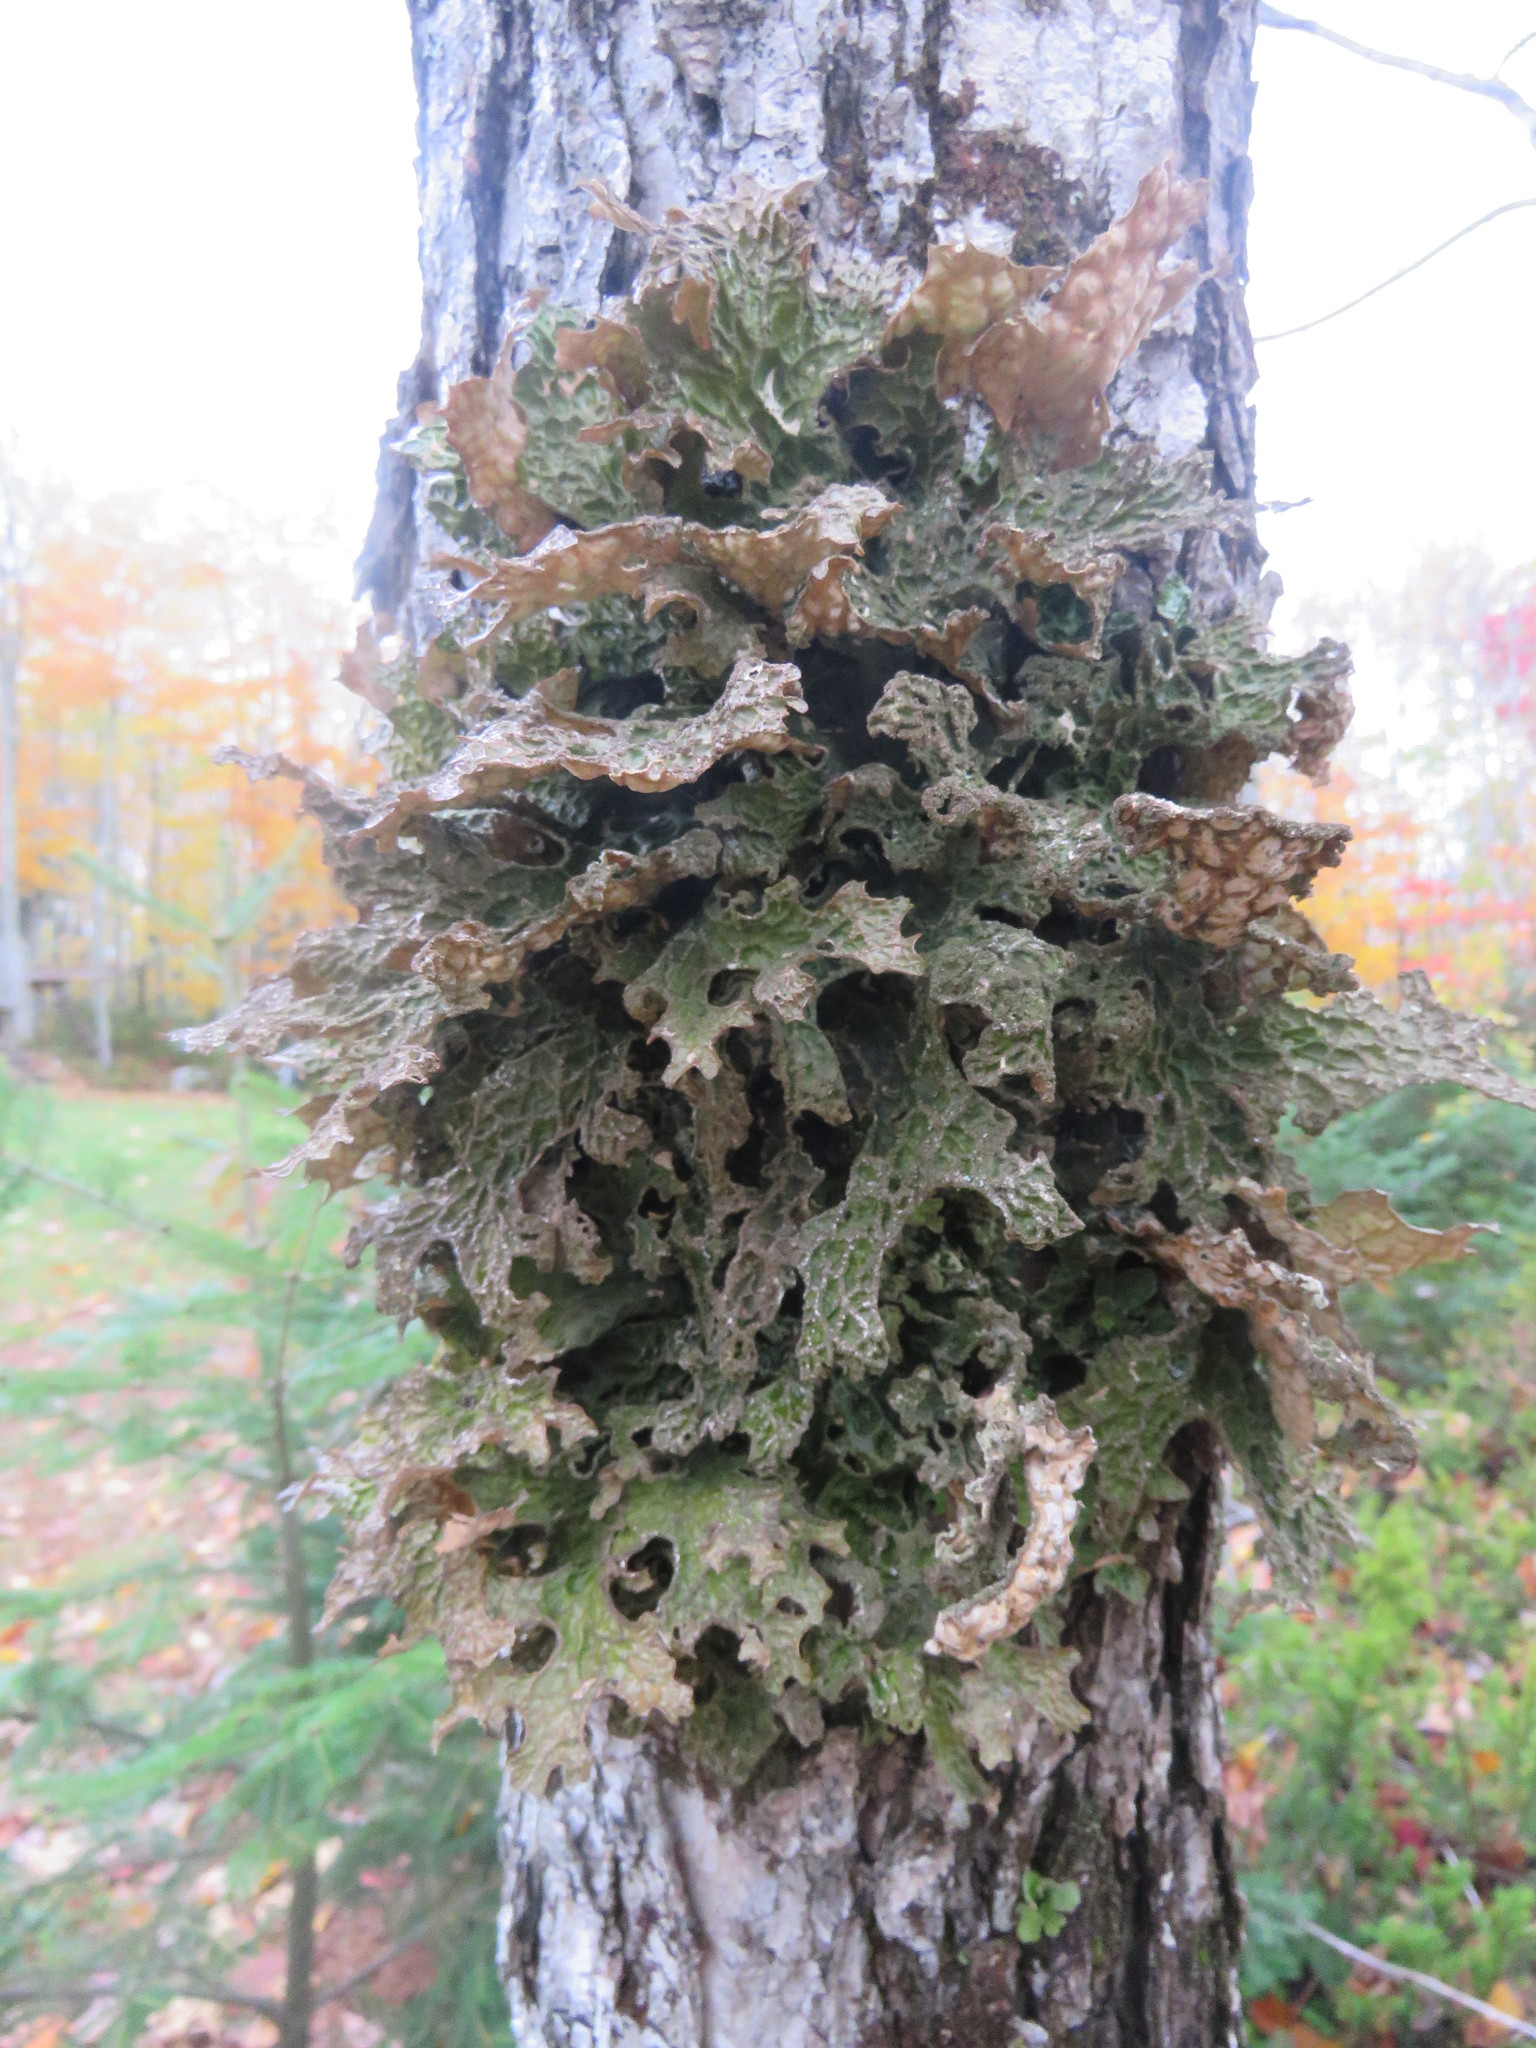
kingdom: Fungi
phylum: Ascomycota
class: Lecanoromycetes
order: Peltigerales
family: Lobariaceae
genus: Lobaria
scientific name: Lobaria pulmonaria
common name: Lungwort
